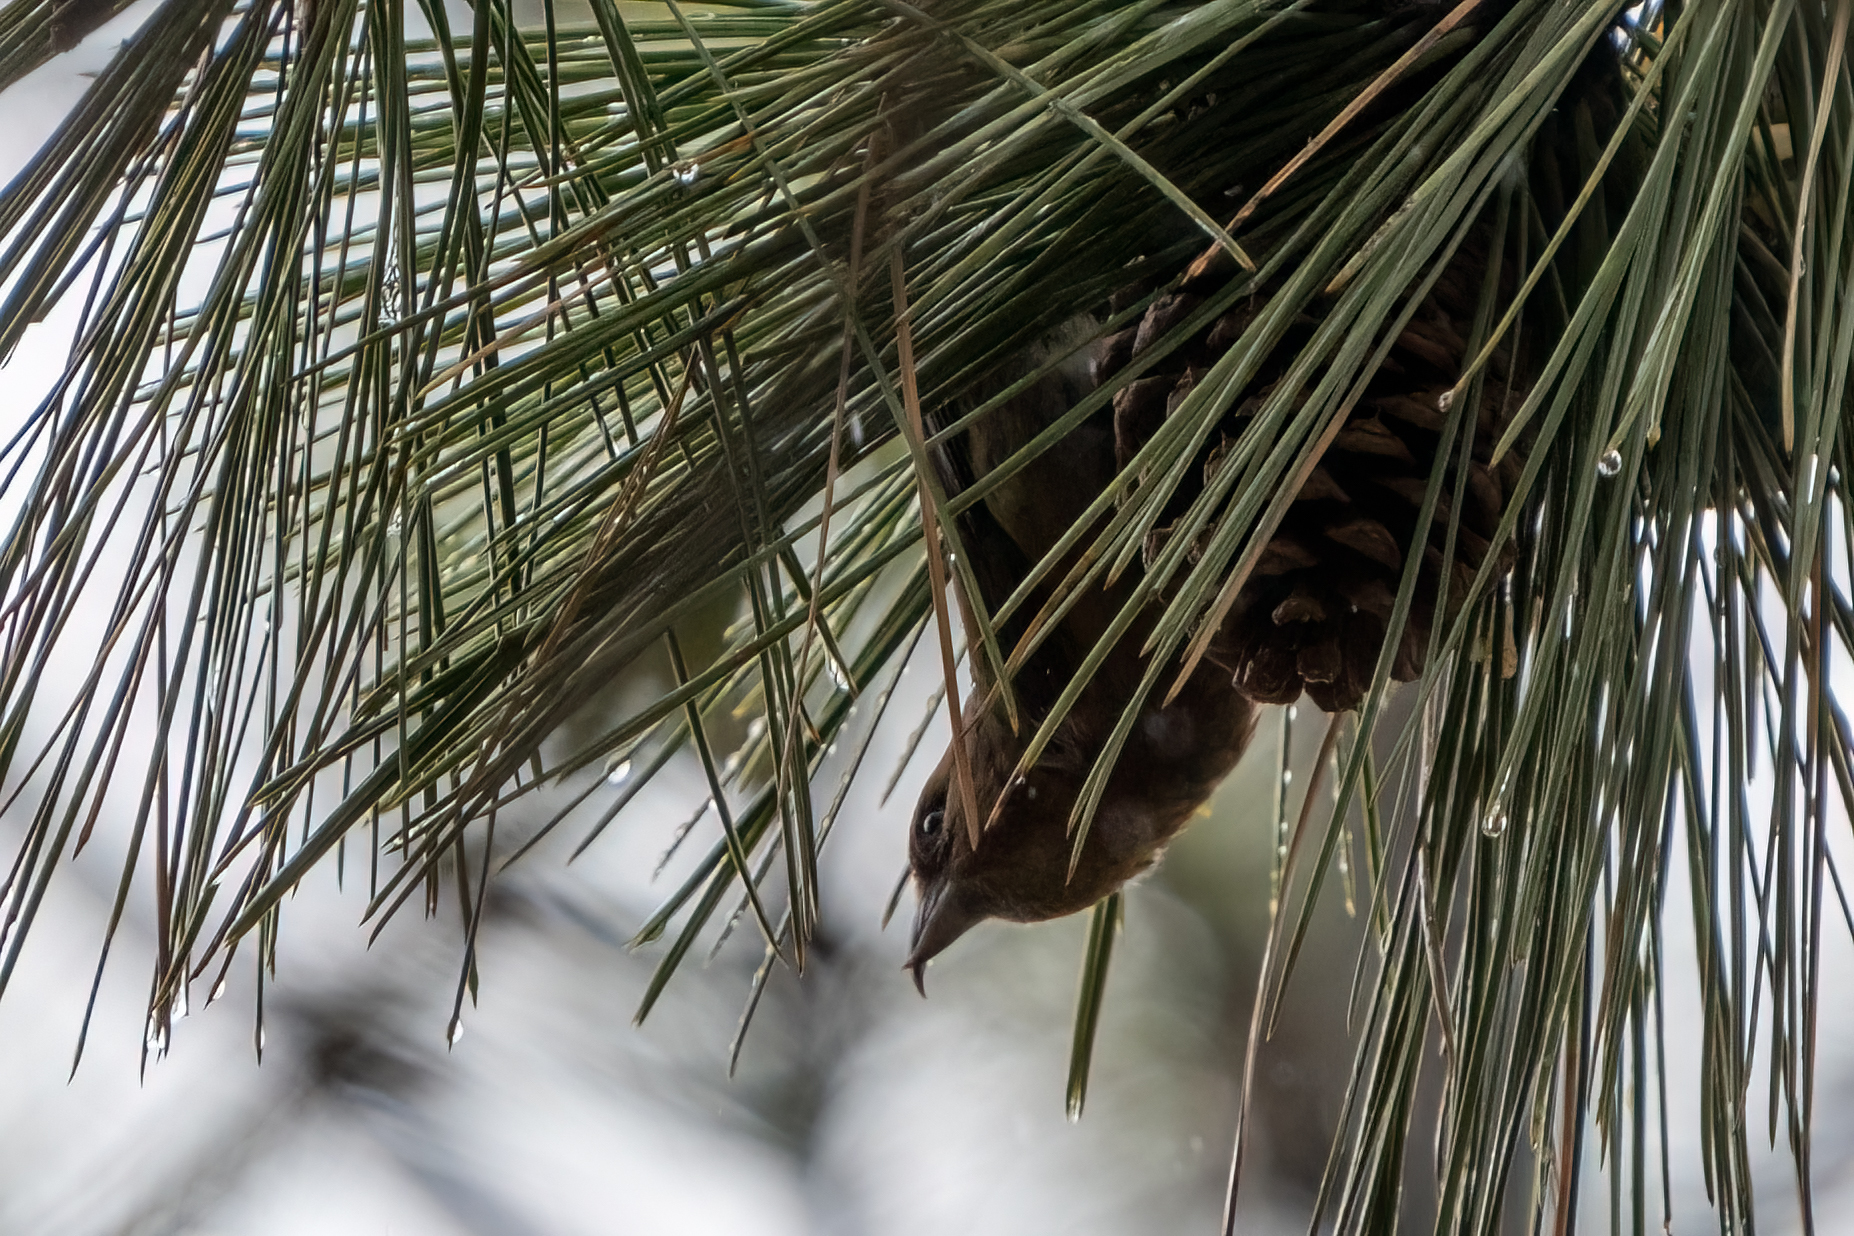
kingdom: Animalia
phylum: Chordata
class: Aves
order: Passeriformes
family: Fringillidae
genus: Loxia
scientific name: Loxia curvirostra
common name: Red crossbill
